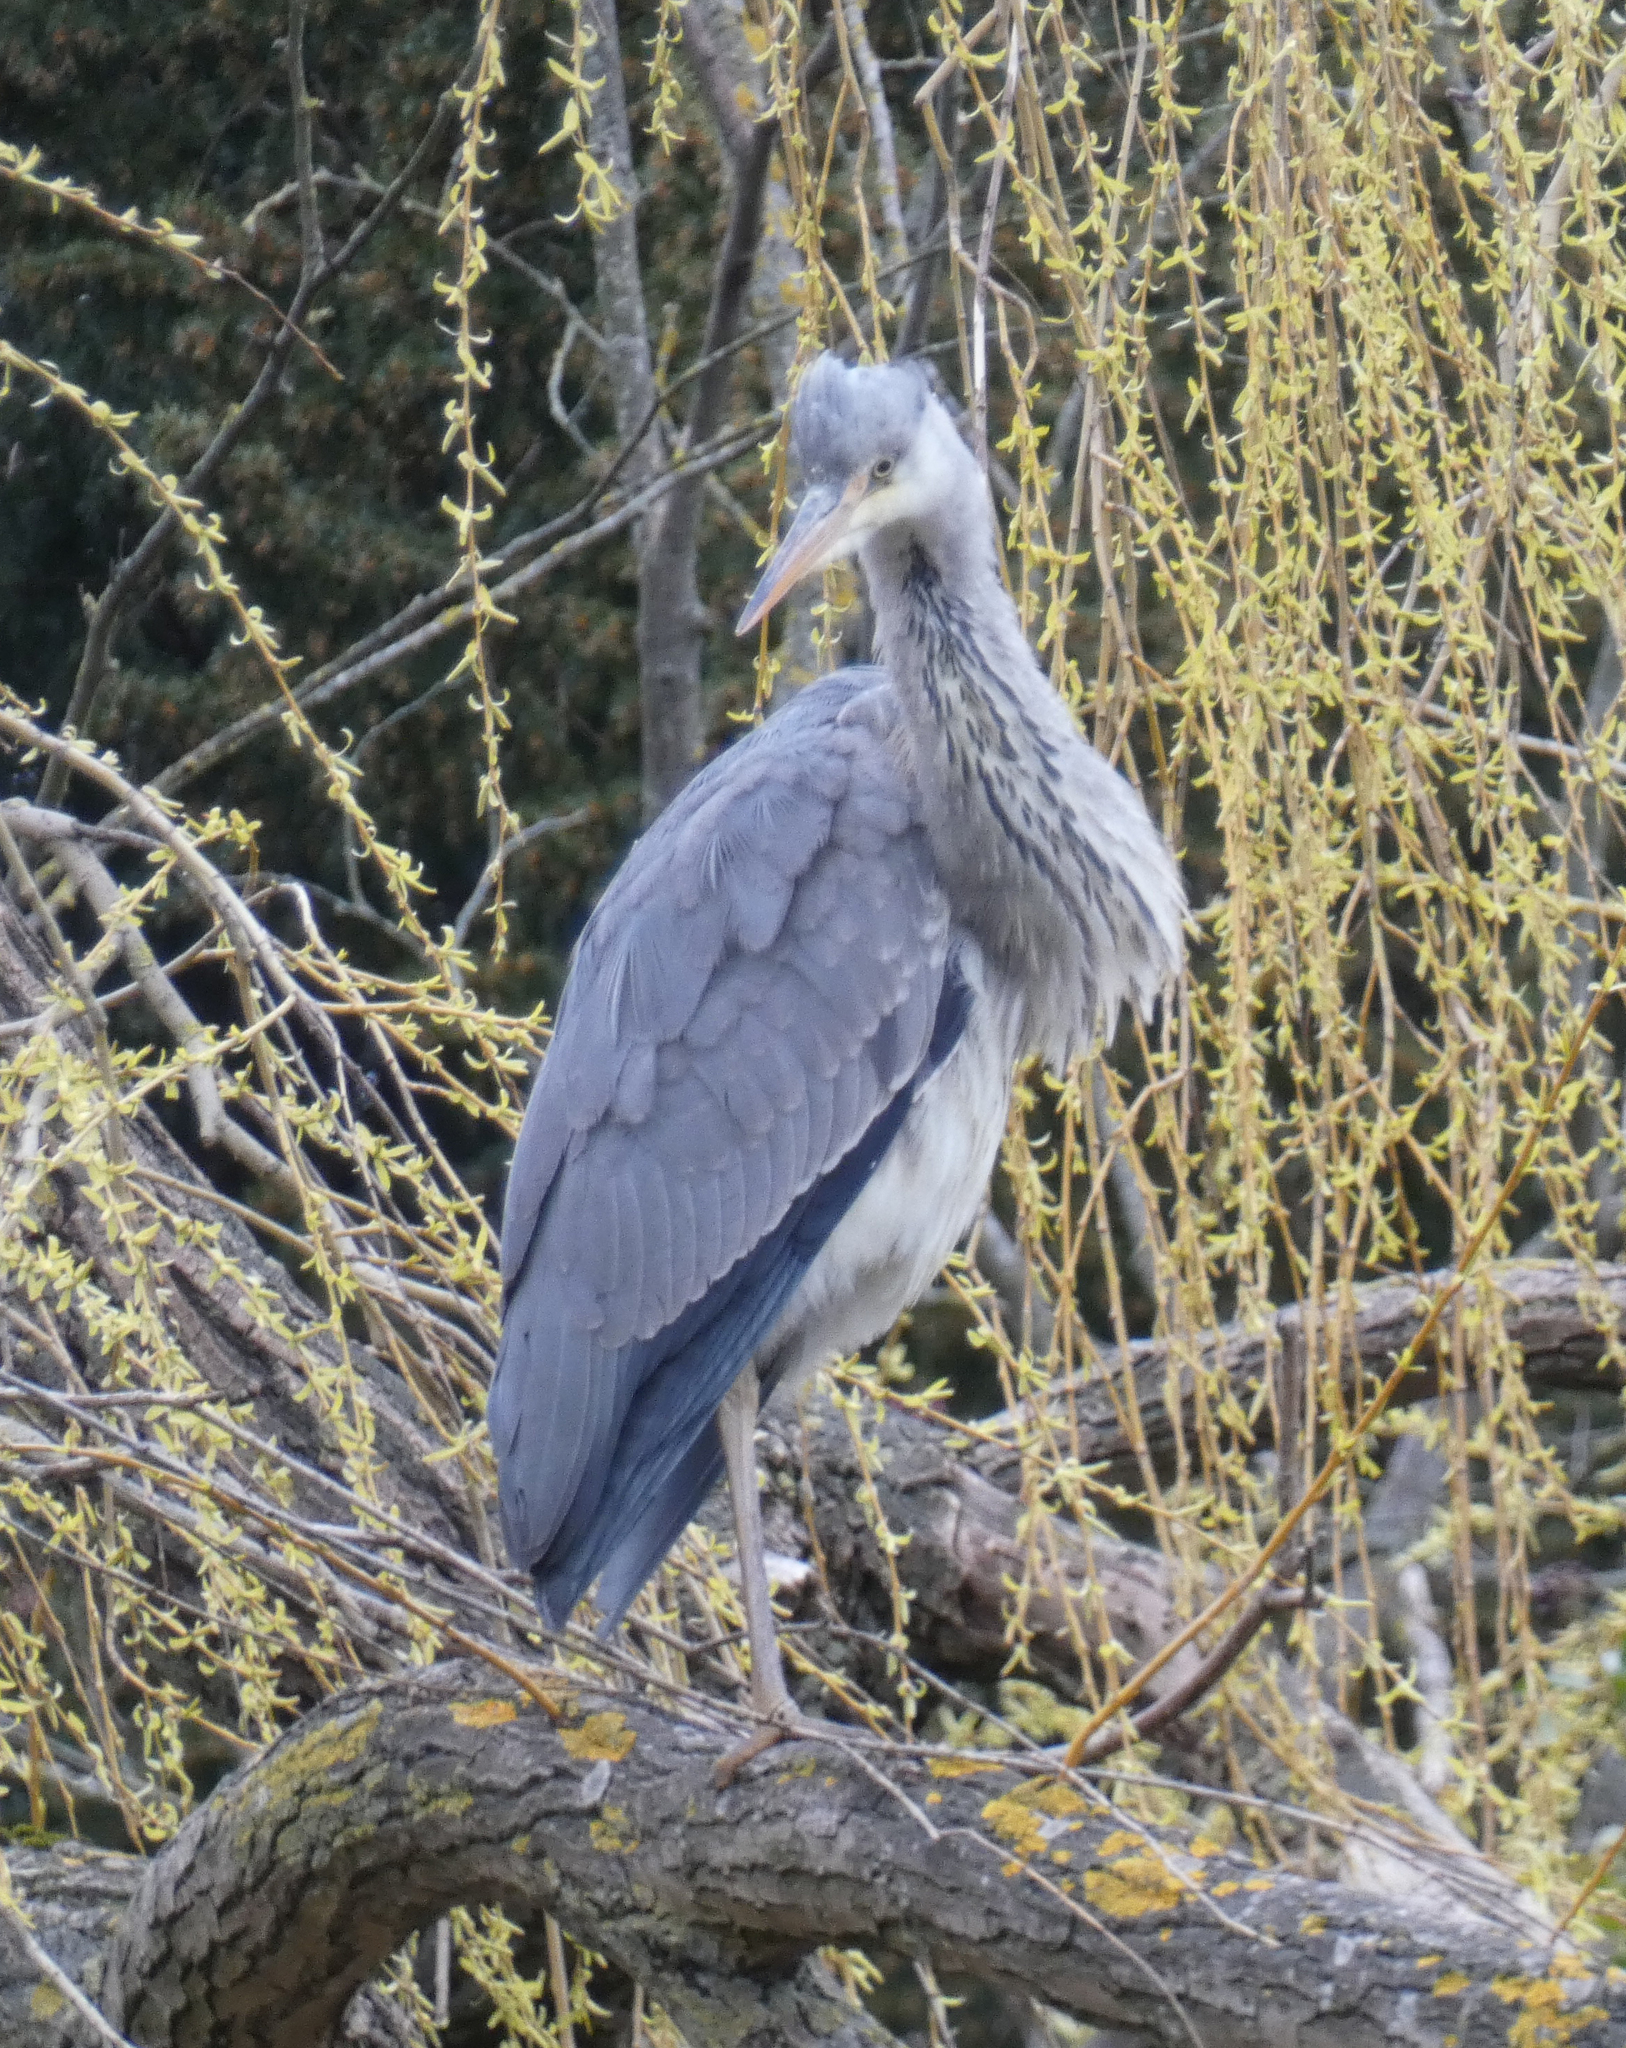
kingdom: Animalia
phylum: Chordata
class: Aves
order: Pelecaniformes
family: Ardeidae
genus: Ardea
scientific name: Ardea cinerea
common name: Grey heron
